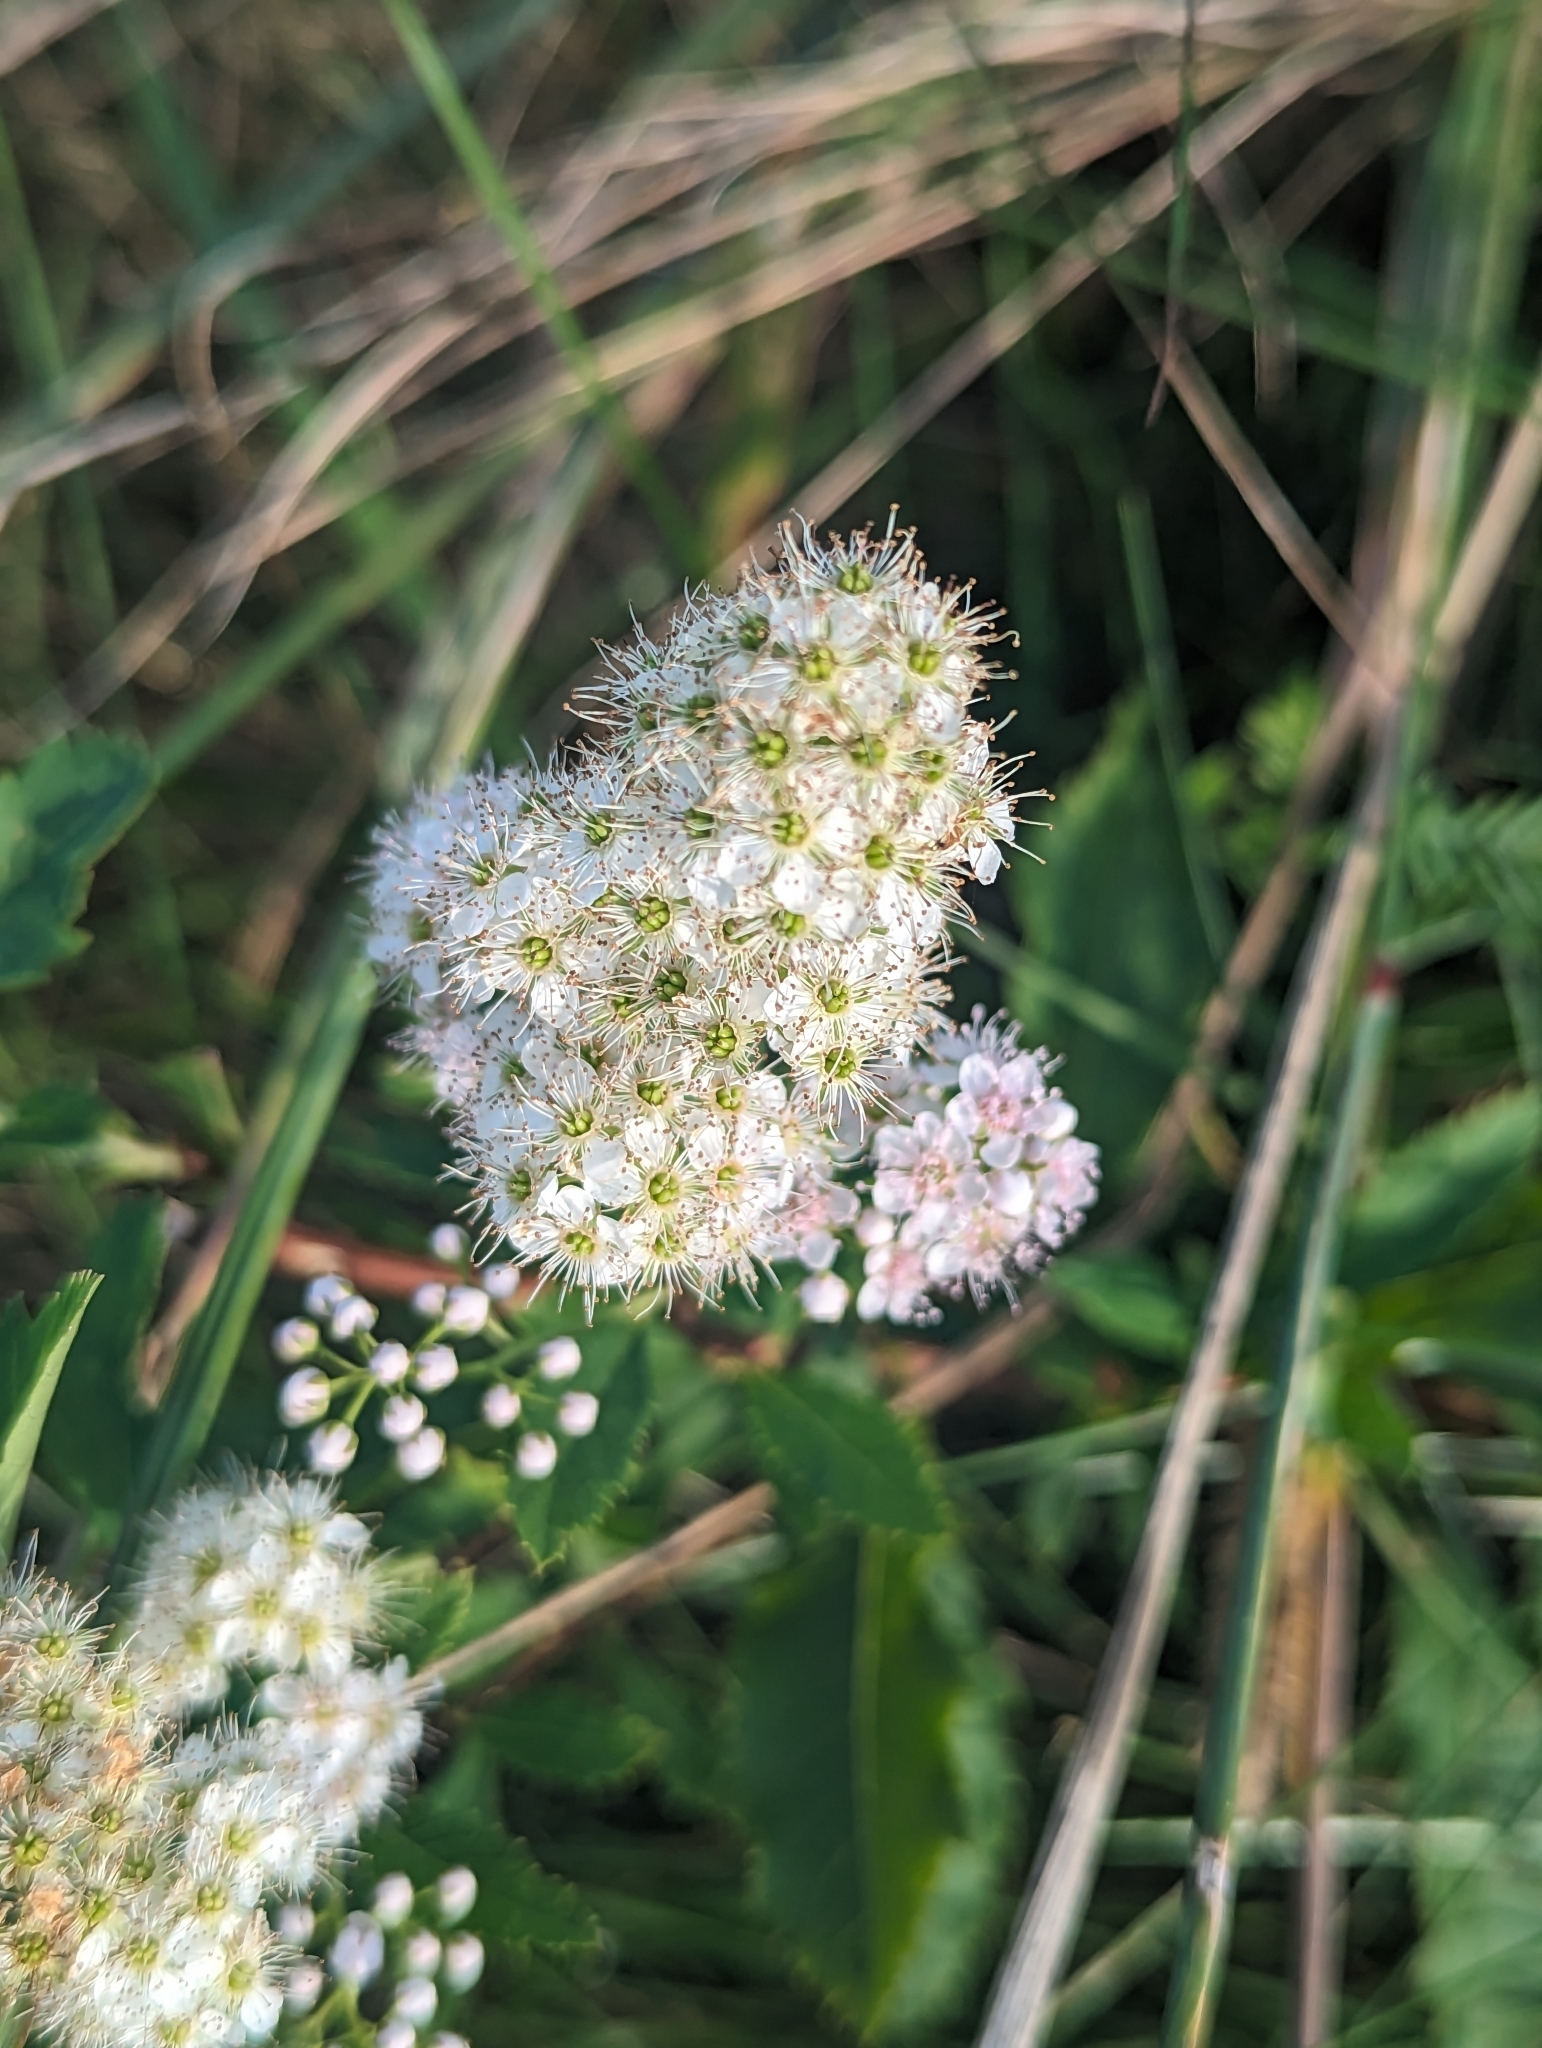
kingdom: Plantae
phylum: Tracheophyta
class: Magnoliopsida
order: Rosales
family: Rosaceae
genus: Spiraea
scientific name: Spiraea alba
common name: Pale bridewort
